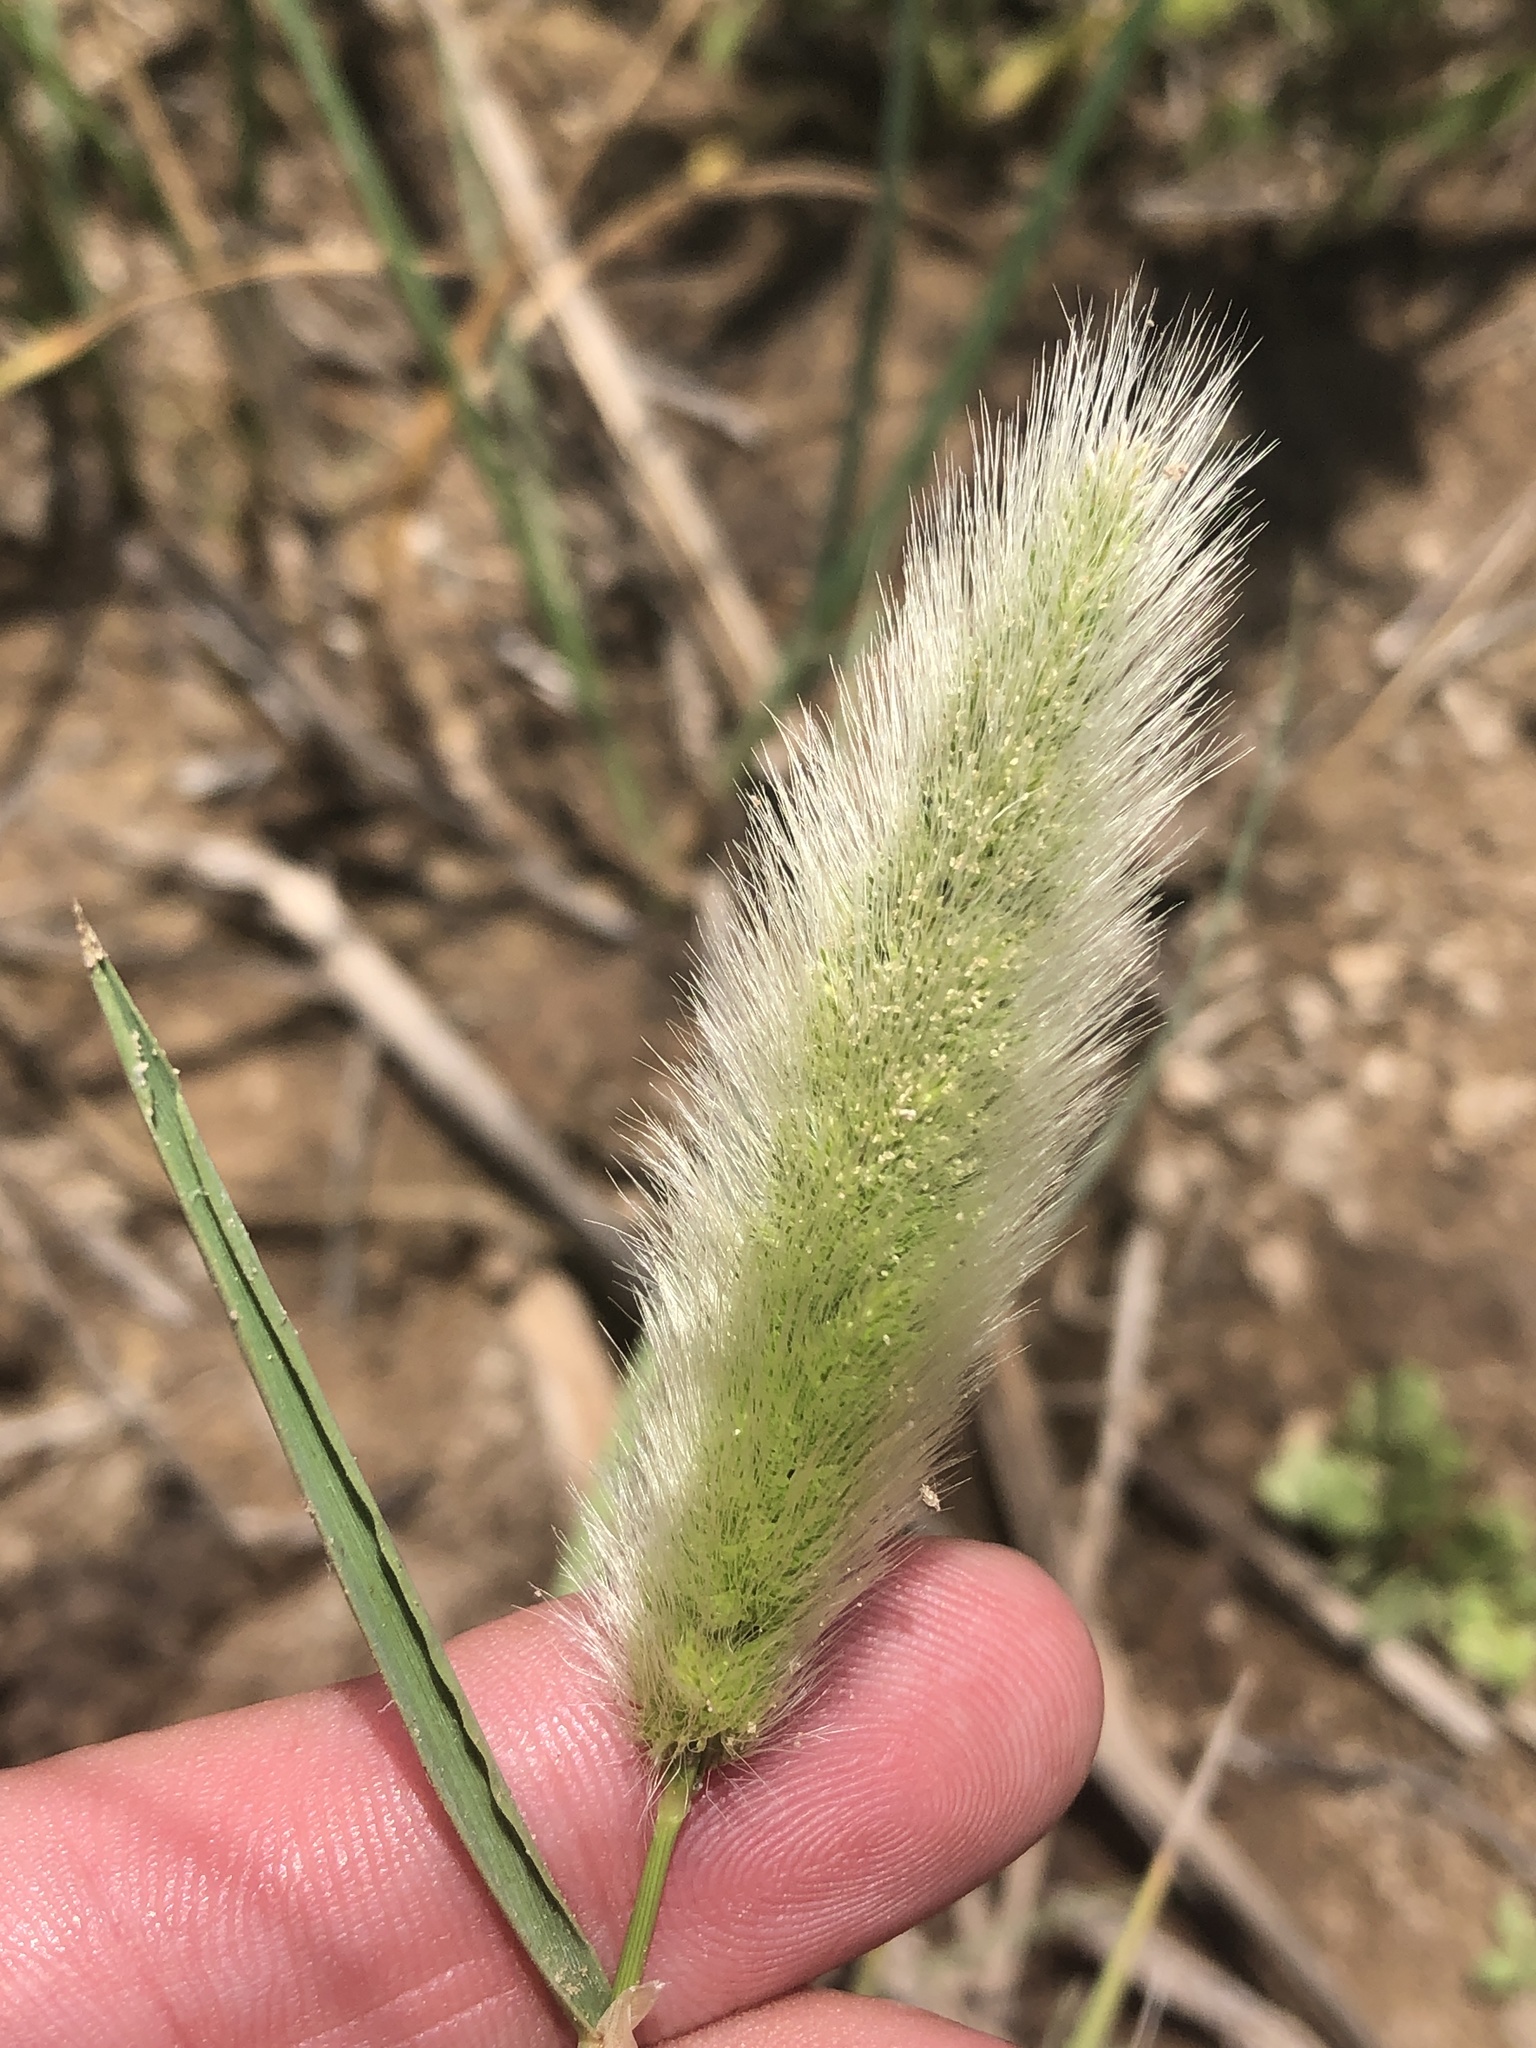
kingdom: Plantae
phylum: Tracheophyta
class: Liliopsida
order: Poales
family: Poaceae
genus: Polypogon
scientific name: Polypogon monspeliensis
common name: Annual rabbitsfoot grass
